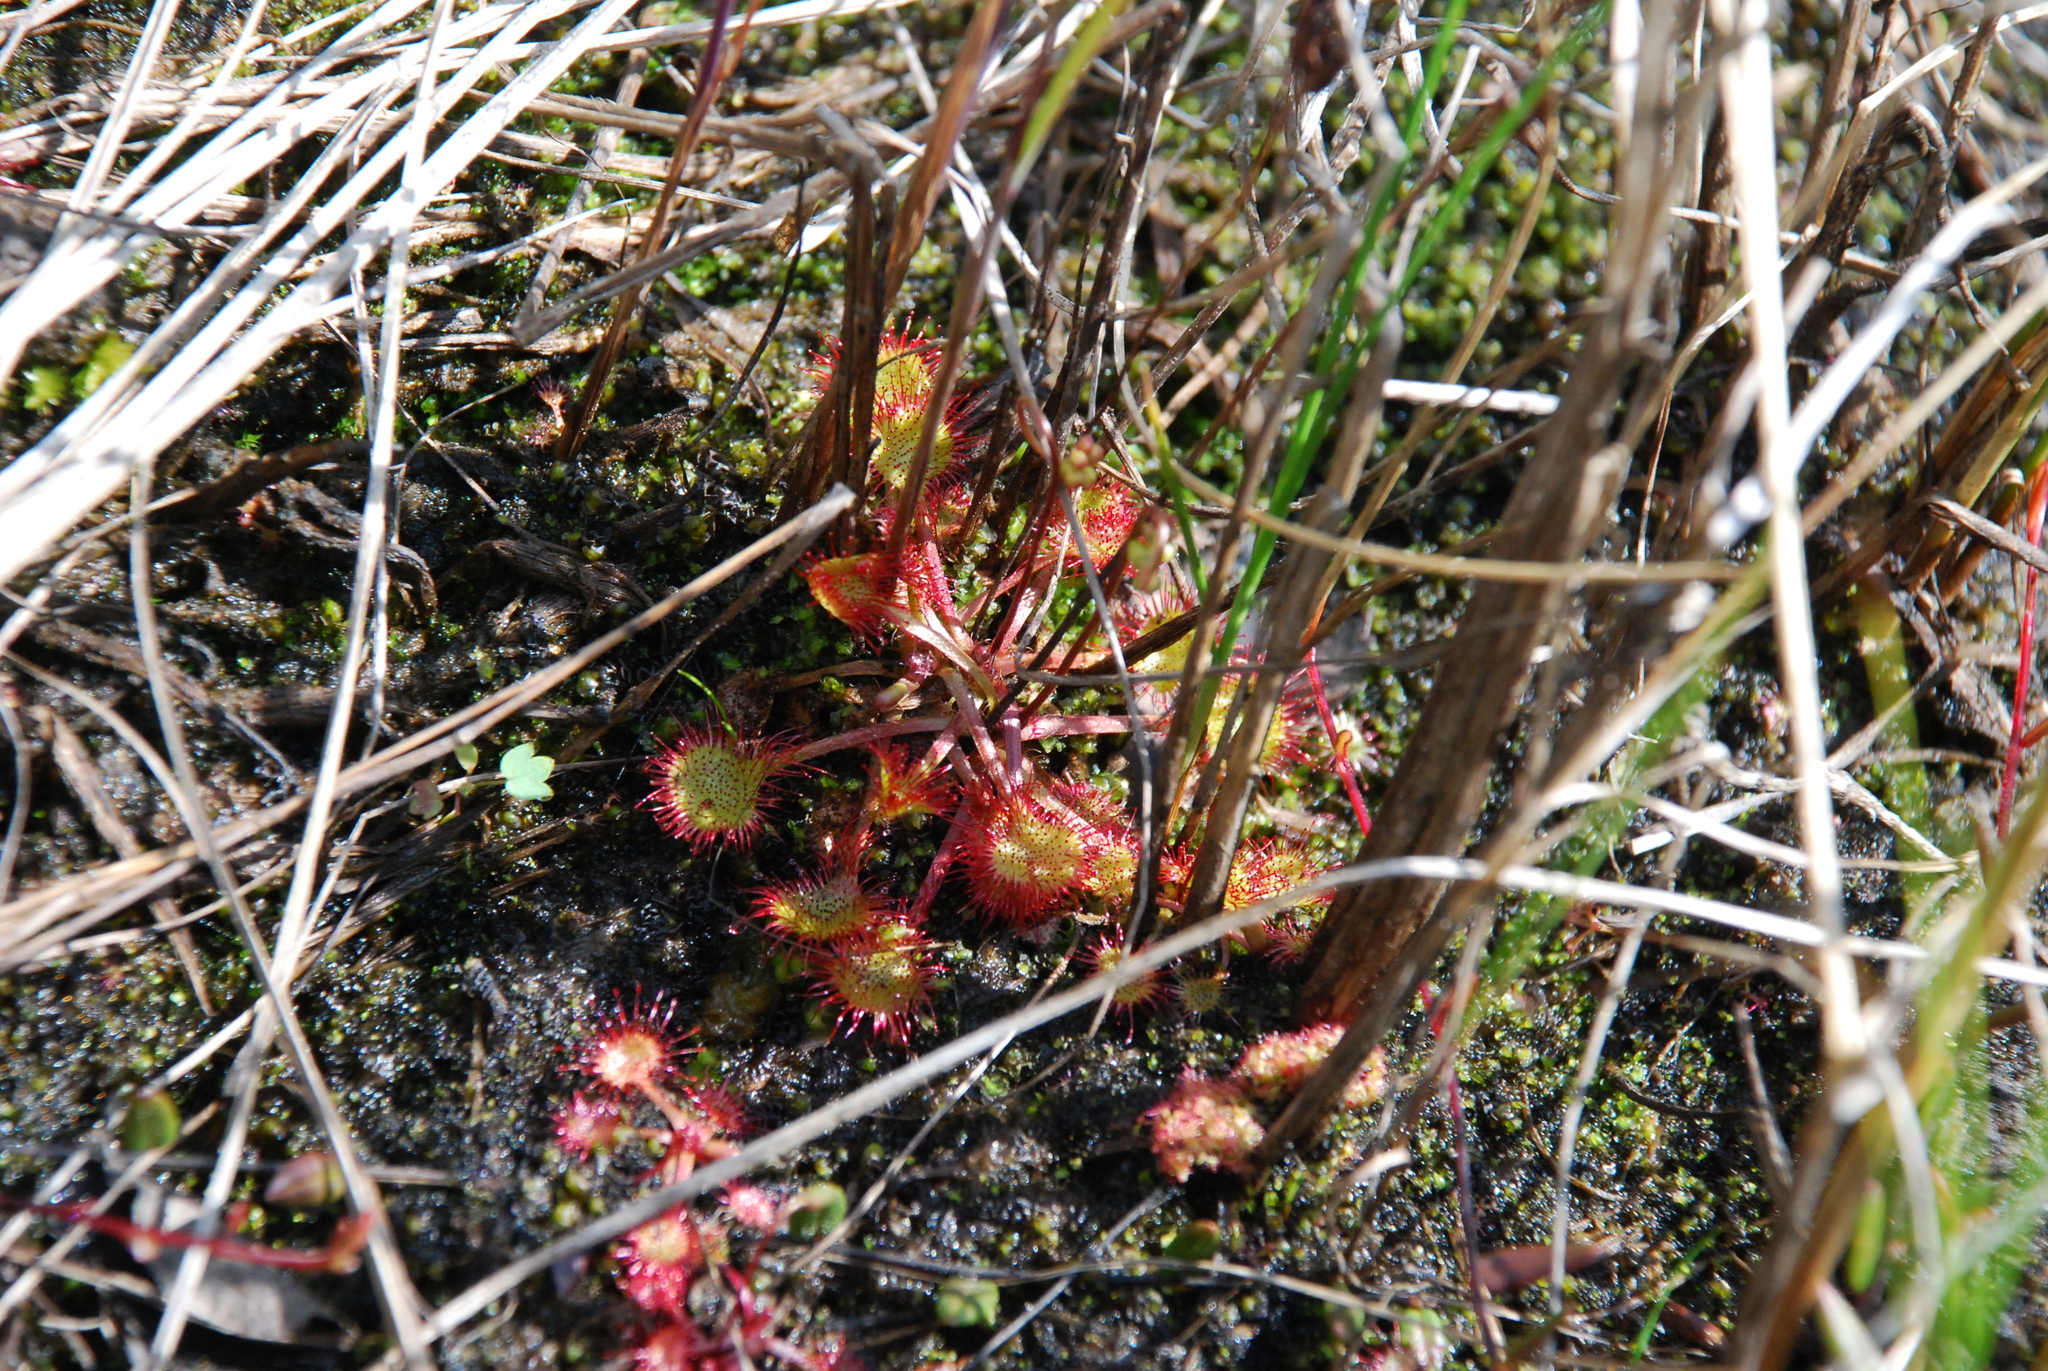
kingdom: Plantae
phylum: Tracheophyta
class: Magnoliopsida
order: Caryophyllales
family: Droseraceae
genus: Drosera
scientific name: Drosera rotundifolia
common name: Round-leaved sundew
